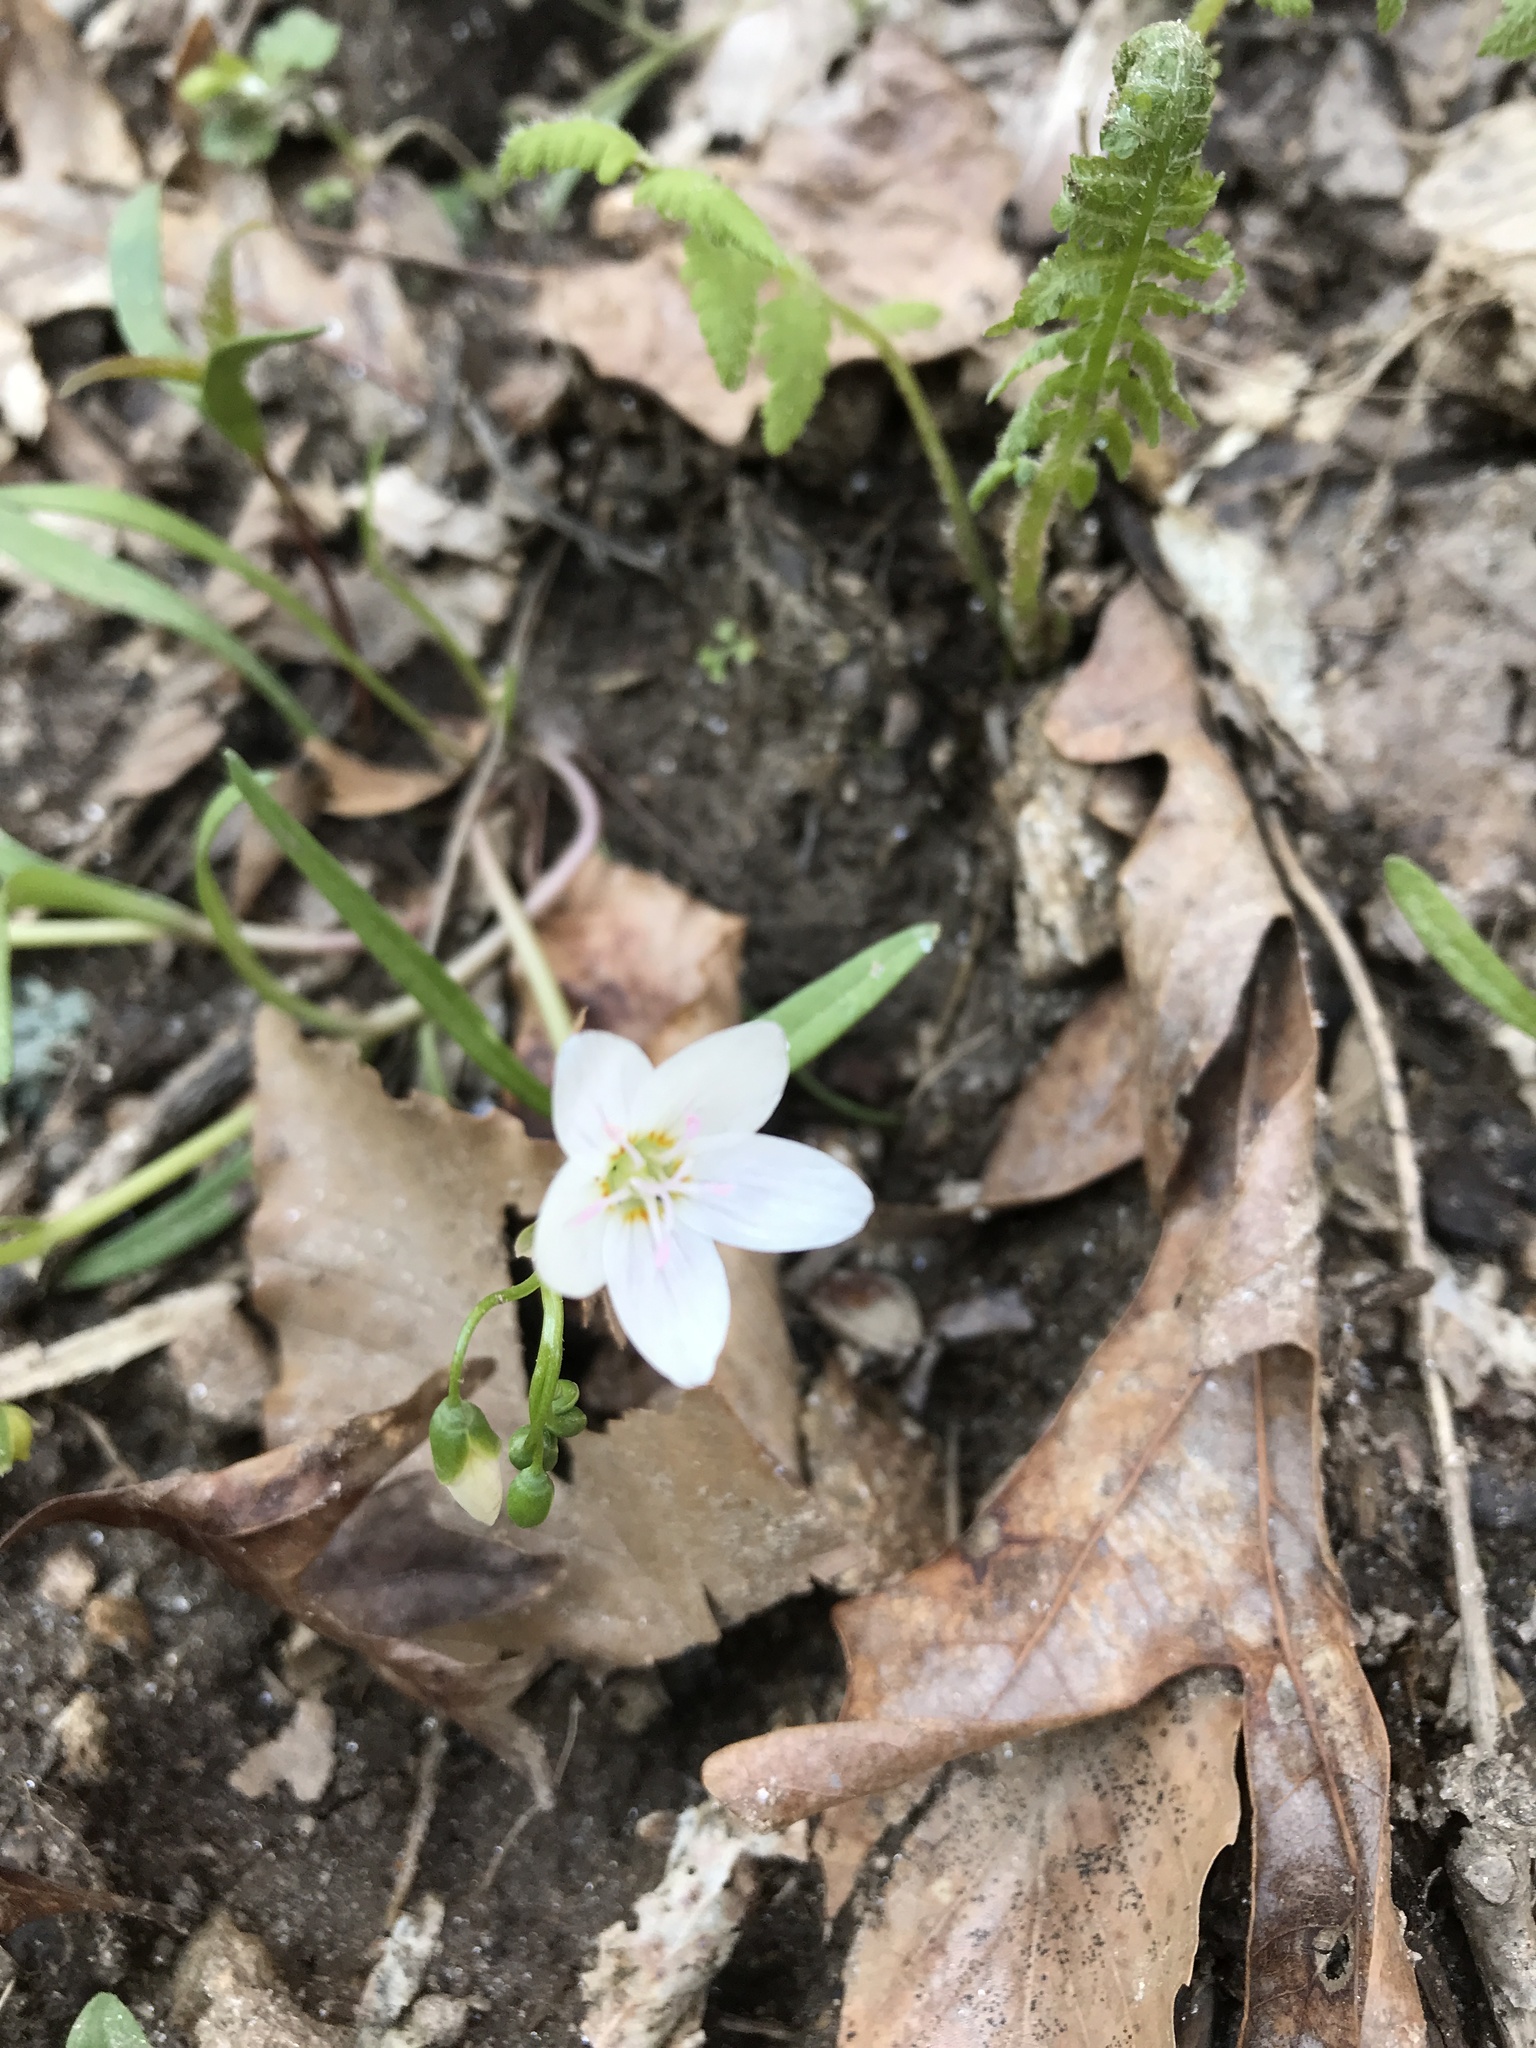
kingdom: Plantae
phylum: Tracheophyta
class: Magnoliopsida
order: Caryophyllales
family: Montiaceae
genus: Claytonia
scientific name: Claytonia virginica
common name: Virginia springbeauty
